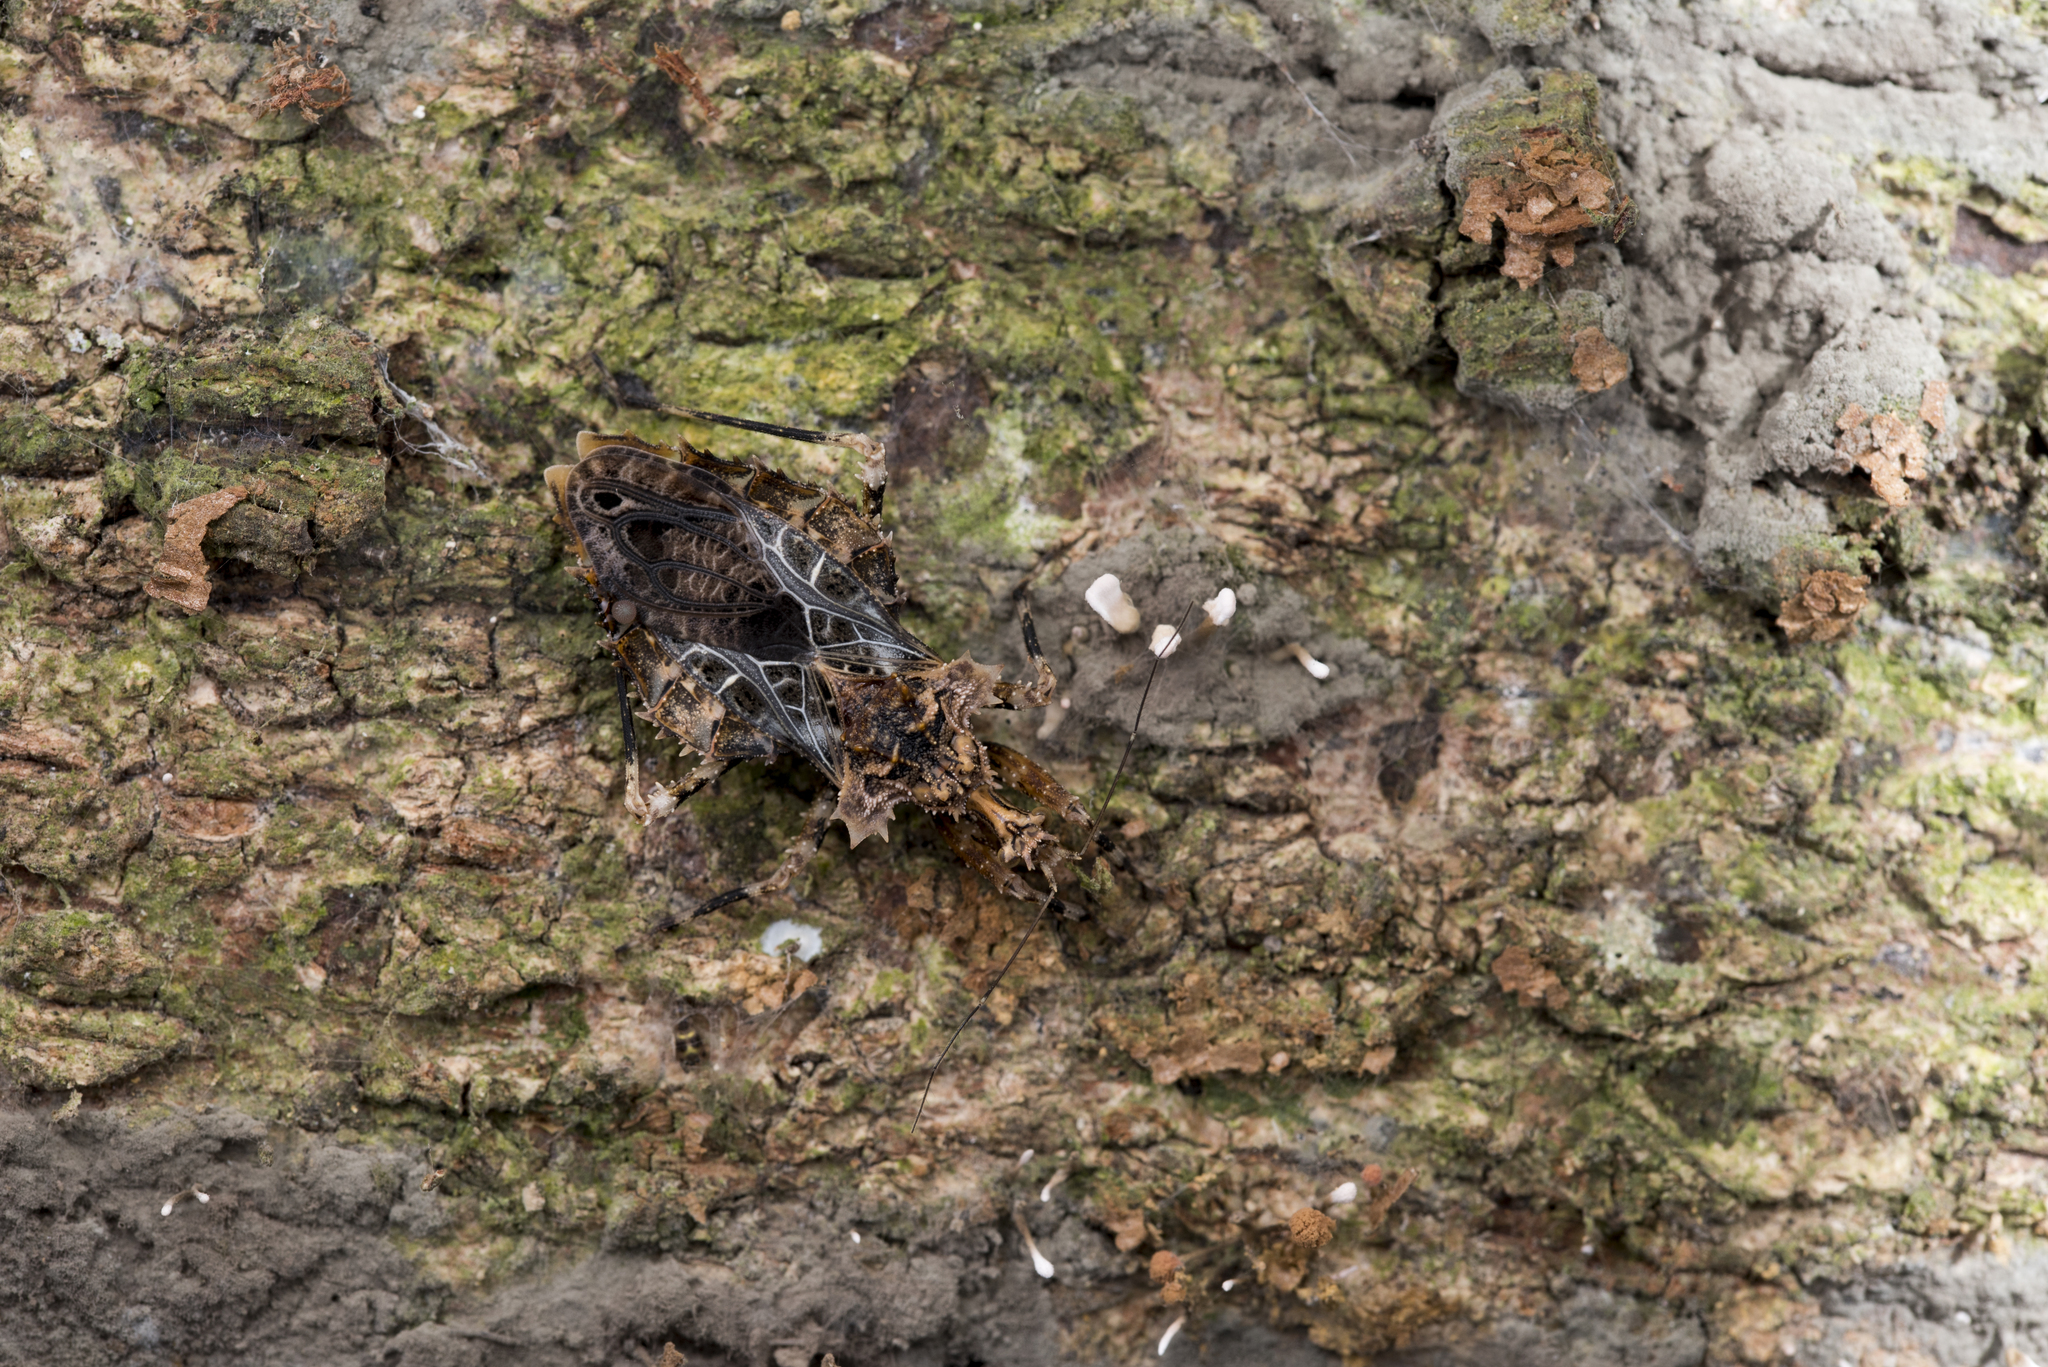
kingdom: Animalia
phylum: Arthropoda
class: Insecta
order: Hemiptera
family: Reduviidae
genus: Neocentrocnemis
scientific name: Neocentrocnemis stali
